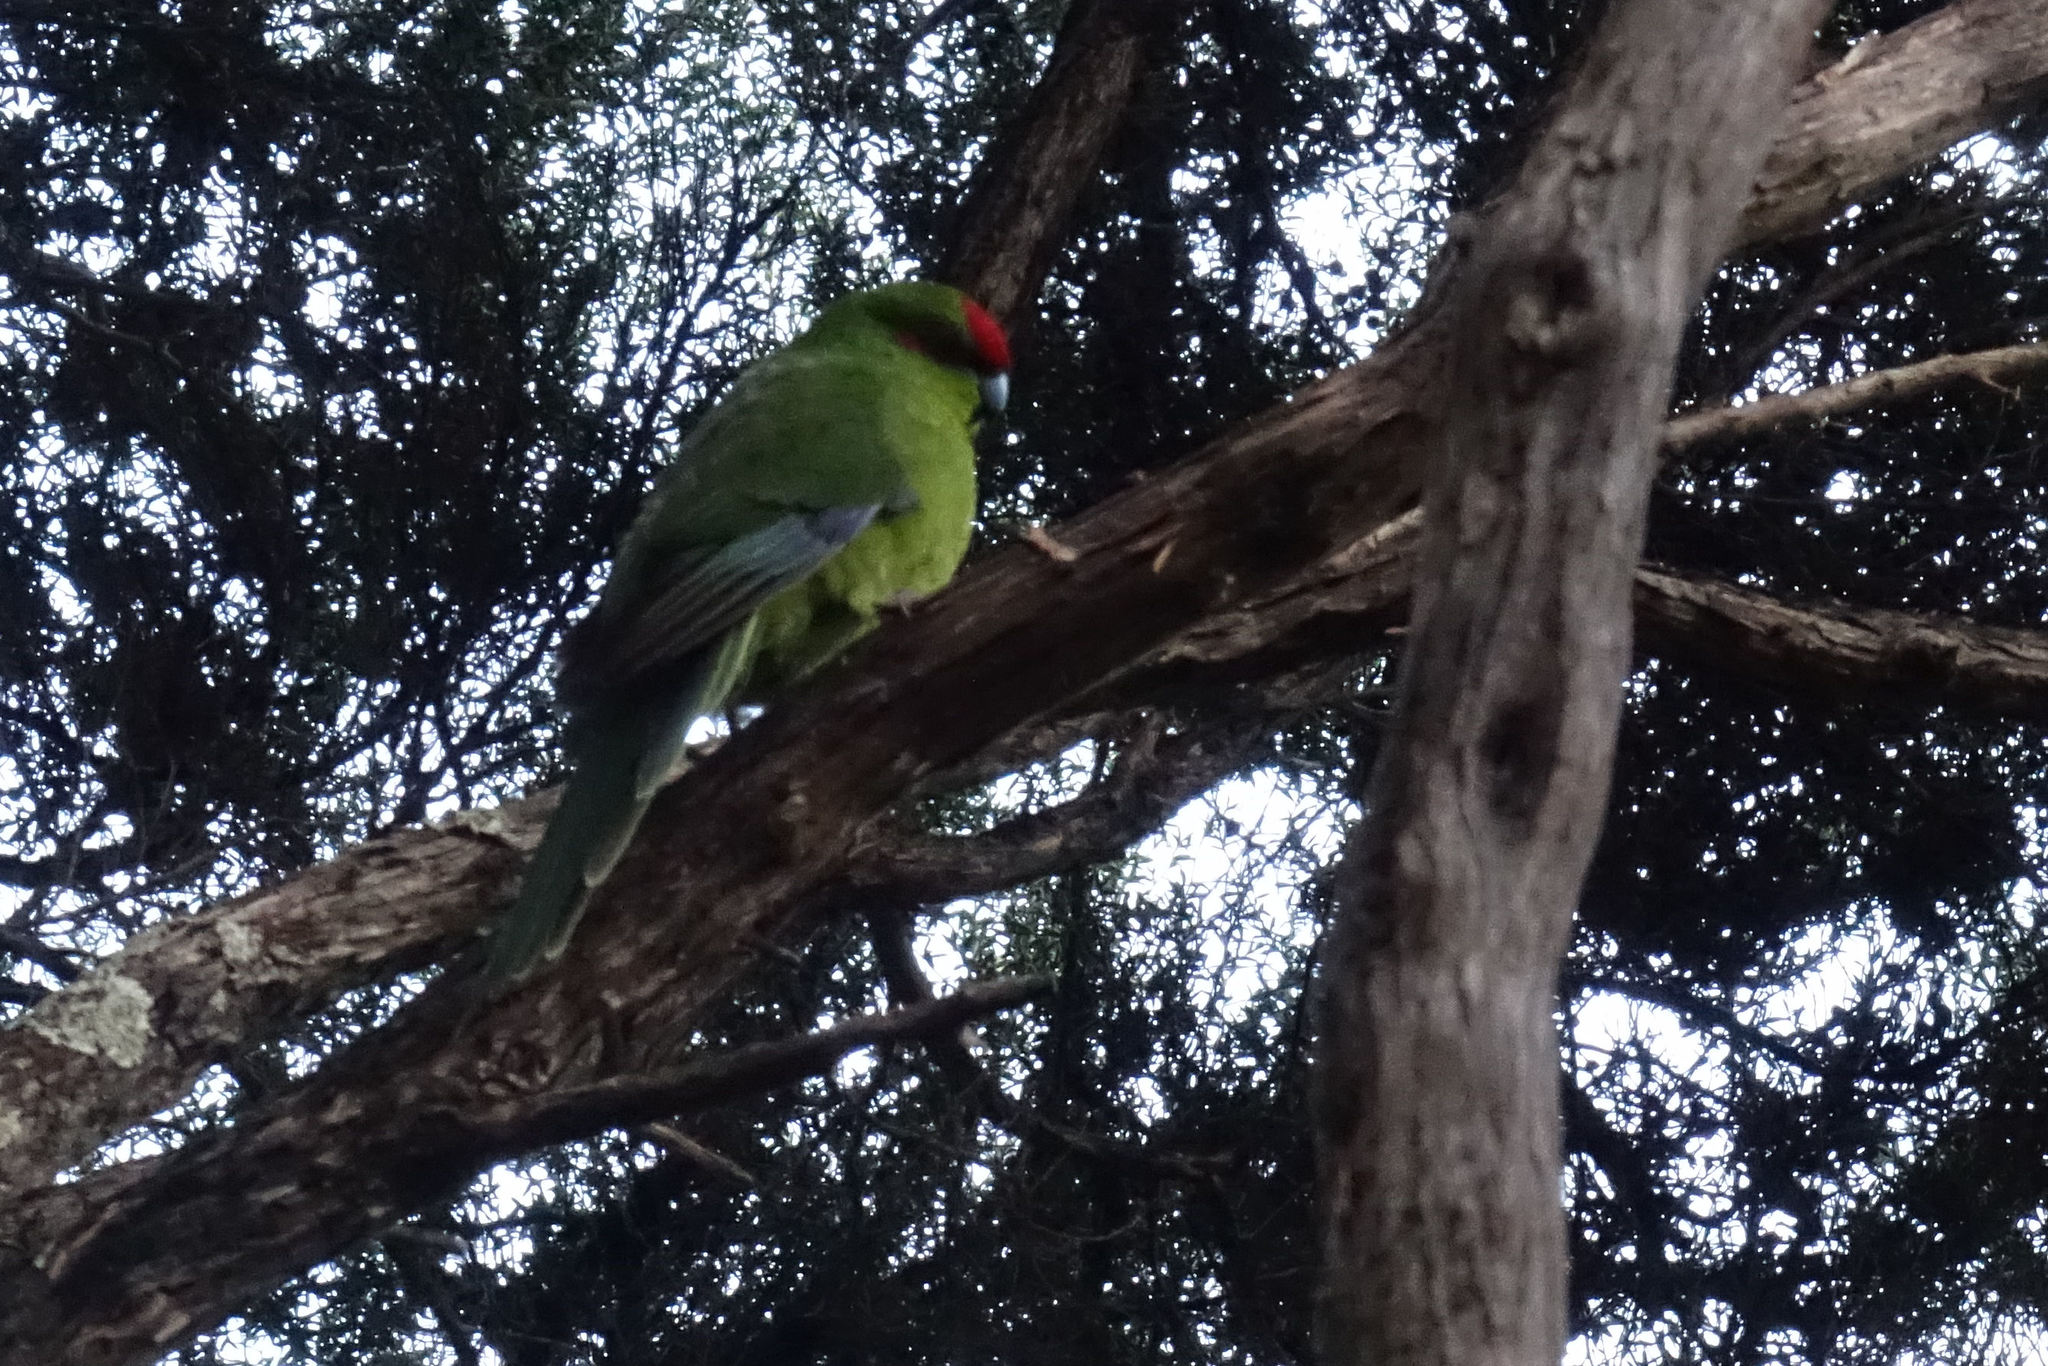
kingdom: Animalia
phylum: Chordata
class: Aves
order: Psittaciformes
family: Psittacidae
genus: Cyanoramphus
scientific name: Cyanoramphus novaezelandiae
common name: Red-fronted parakeet
